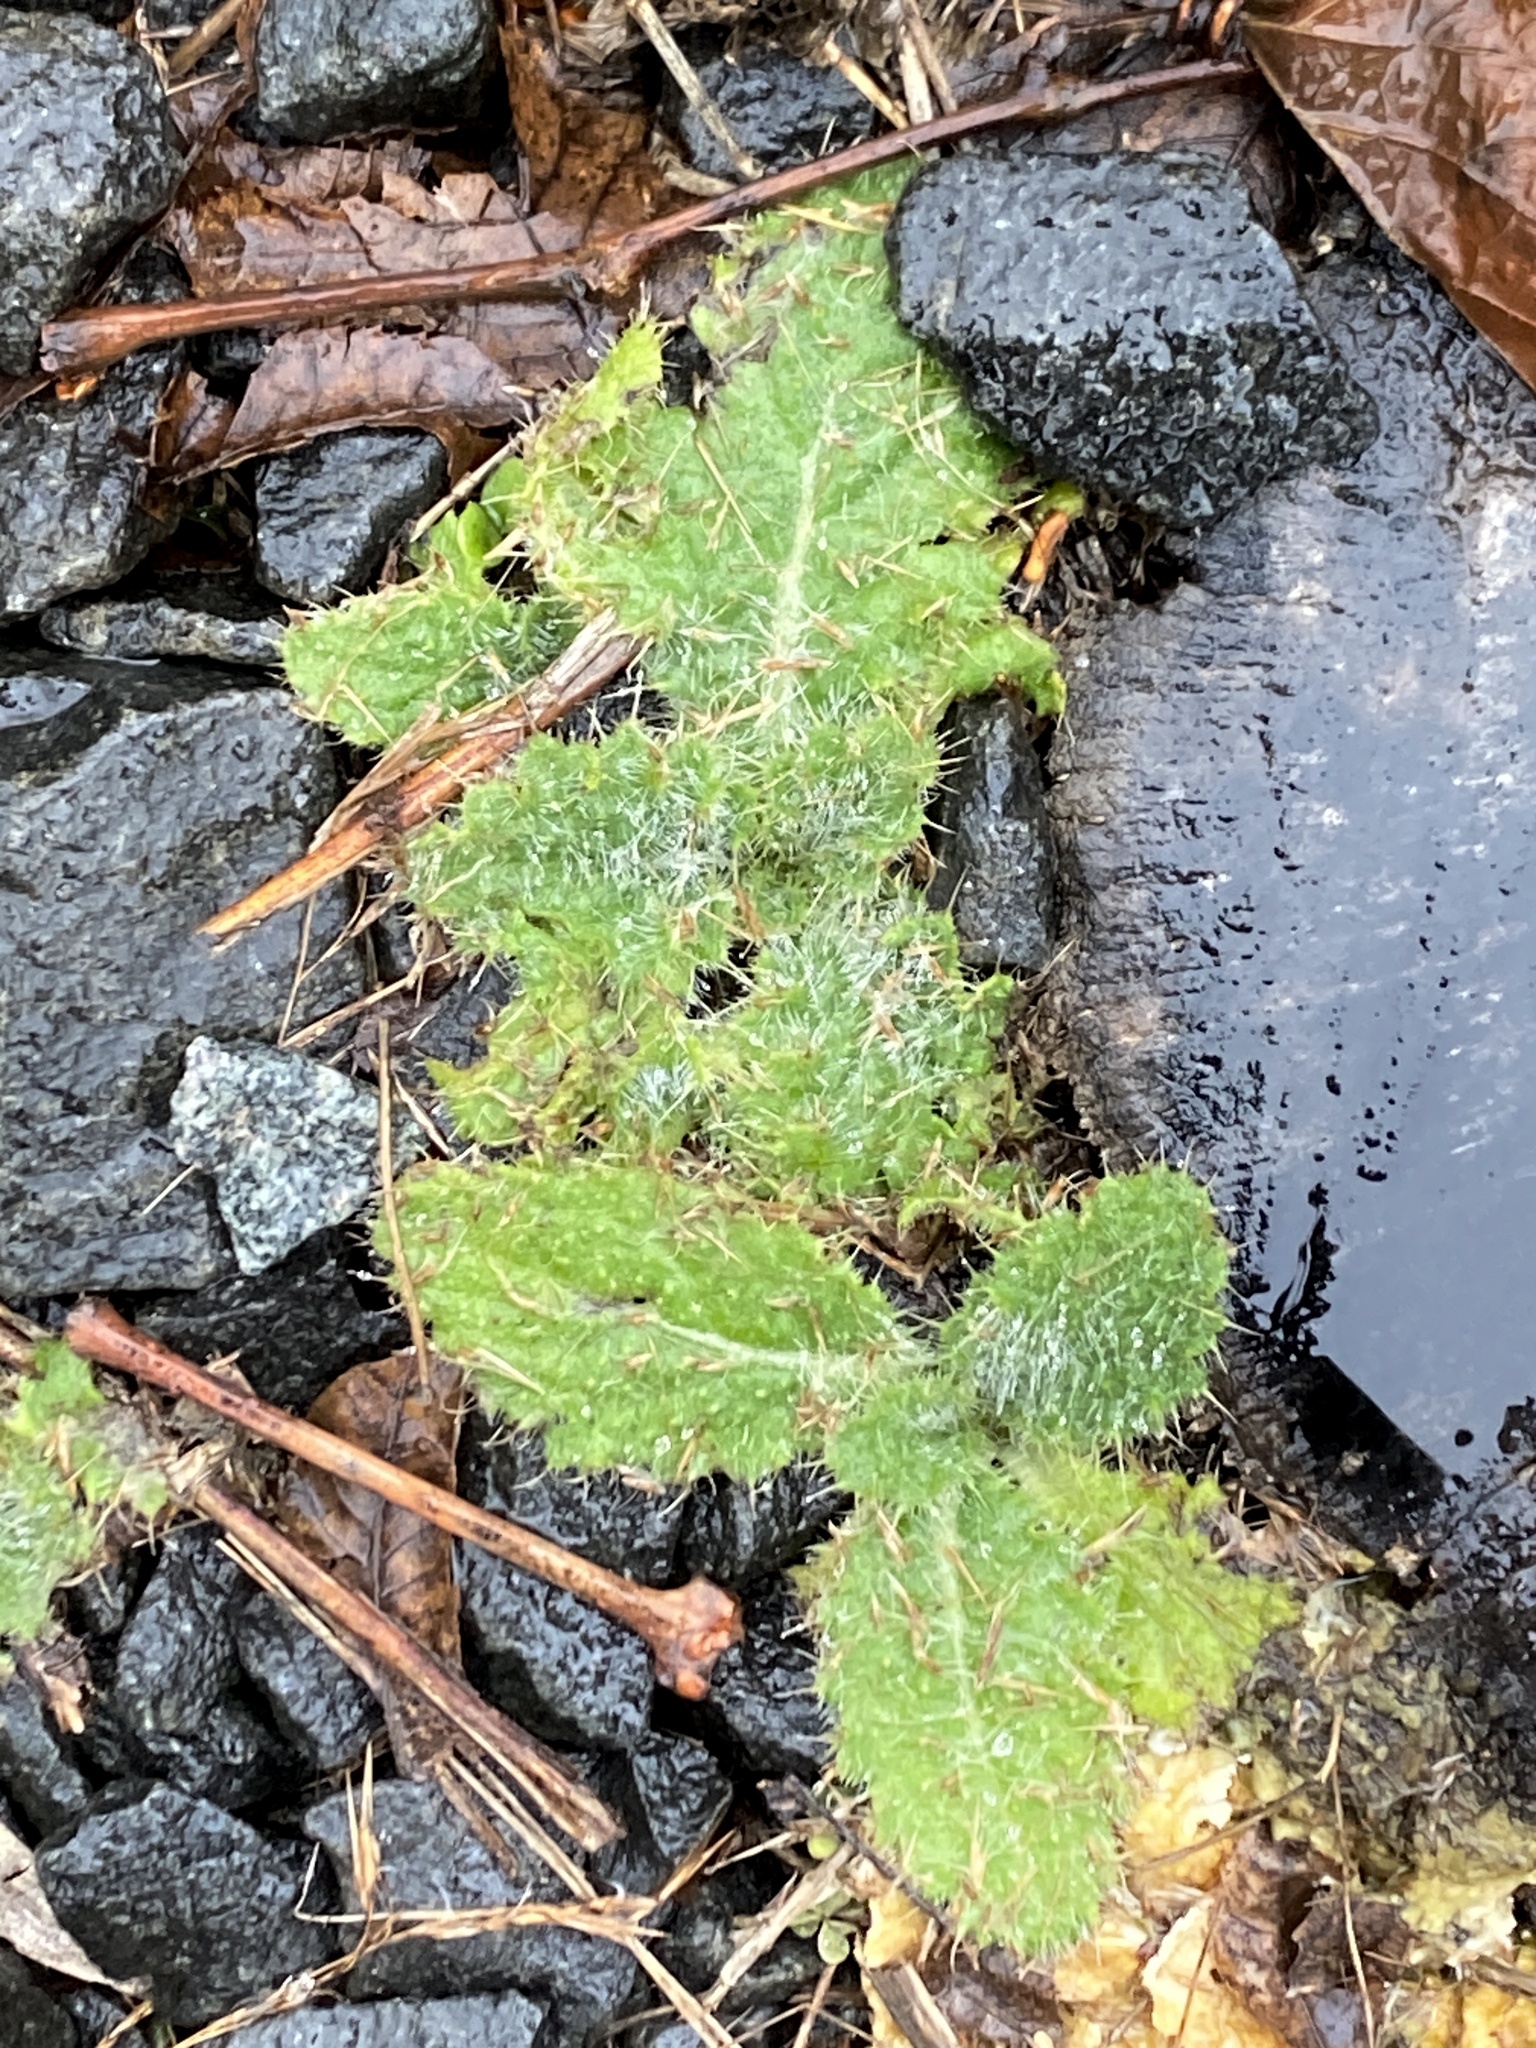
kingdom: Plantae
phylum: Tracheophyta
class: Magnoliopsida
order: Asterales
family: Asteraceae
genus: Cirsium
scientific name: Cirsium vulgare
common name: Bull thistle
